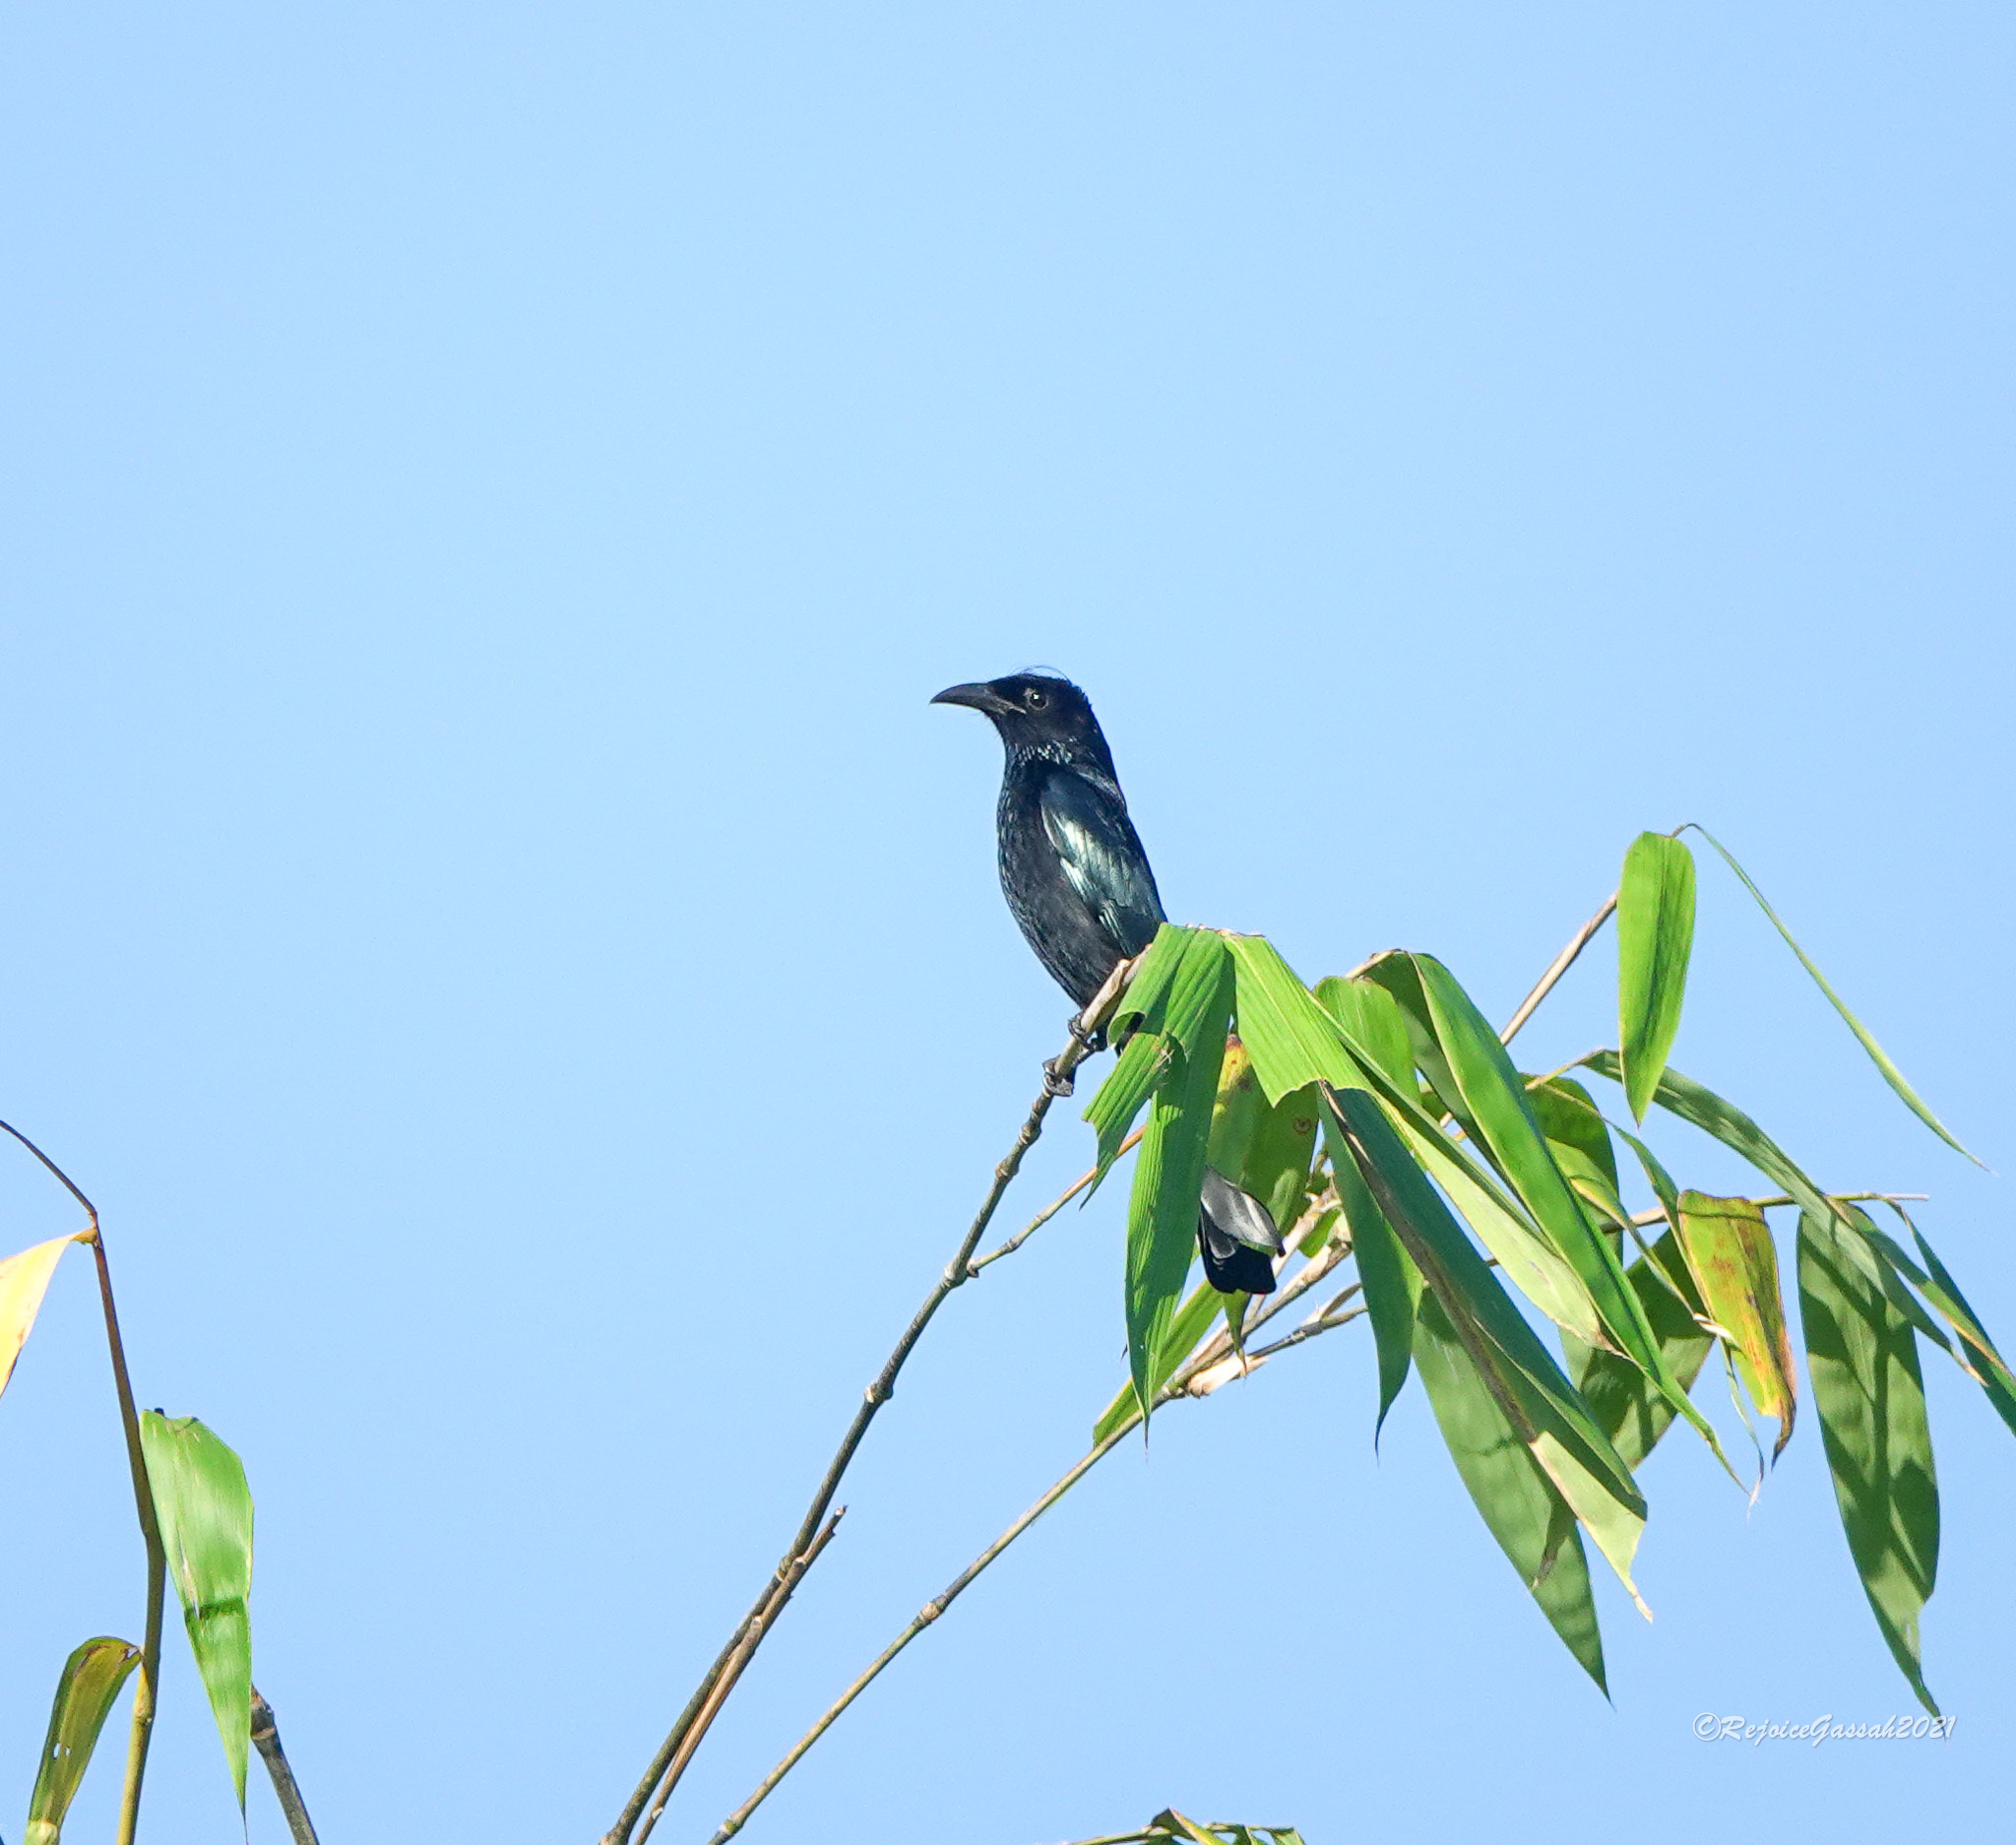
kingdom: Animalia
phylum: Chordata
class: Aves
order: Passeriformes
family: Dicruridae
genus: Dicrurus
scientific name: Dicrurus hottentottus
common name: Hair-crested drongo
